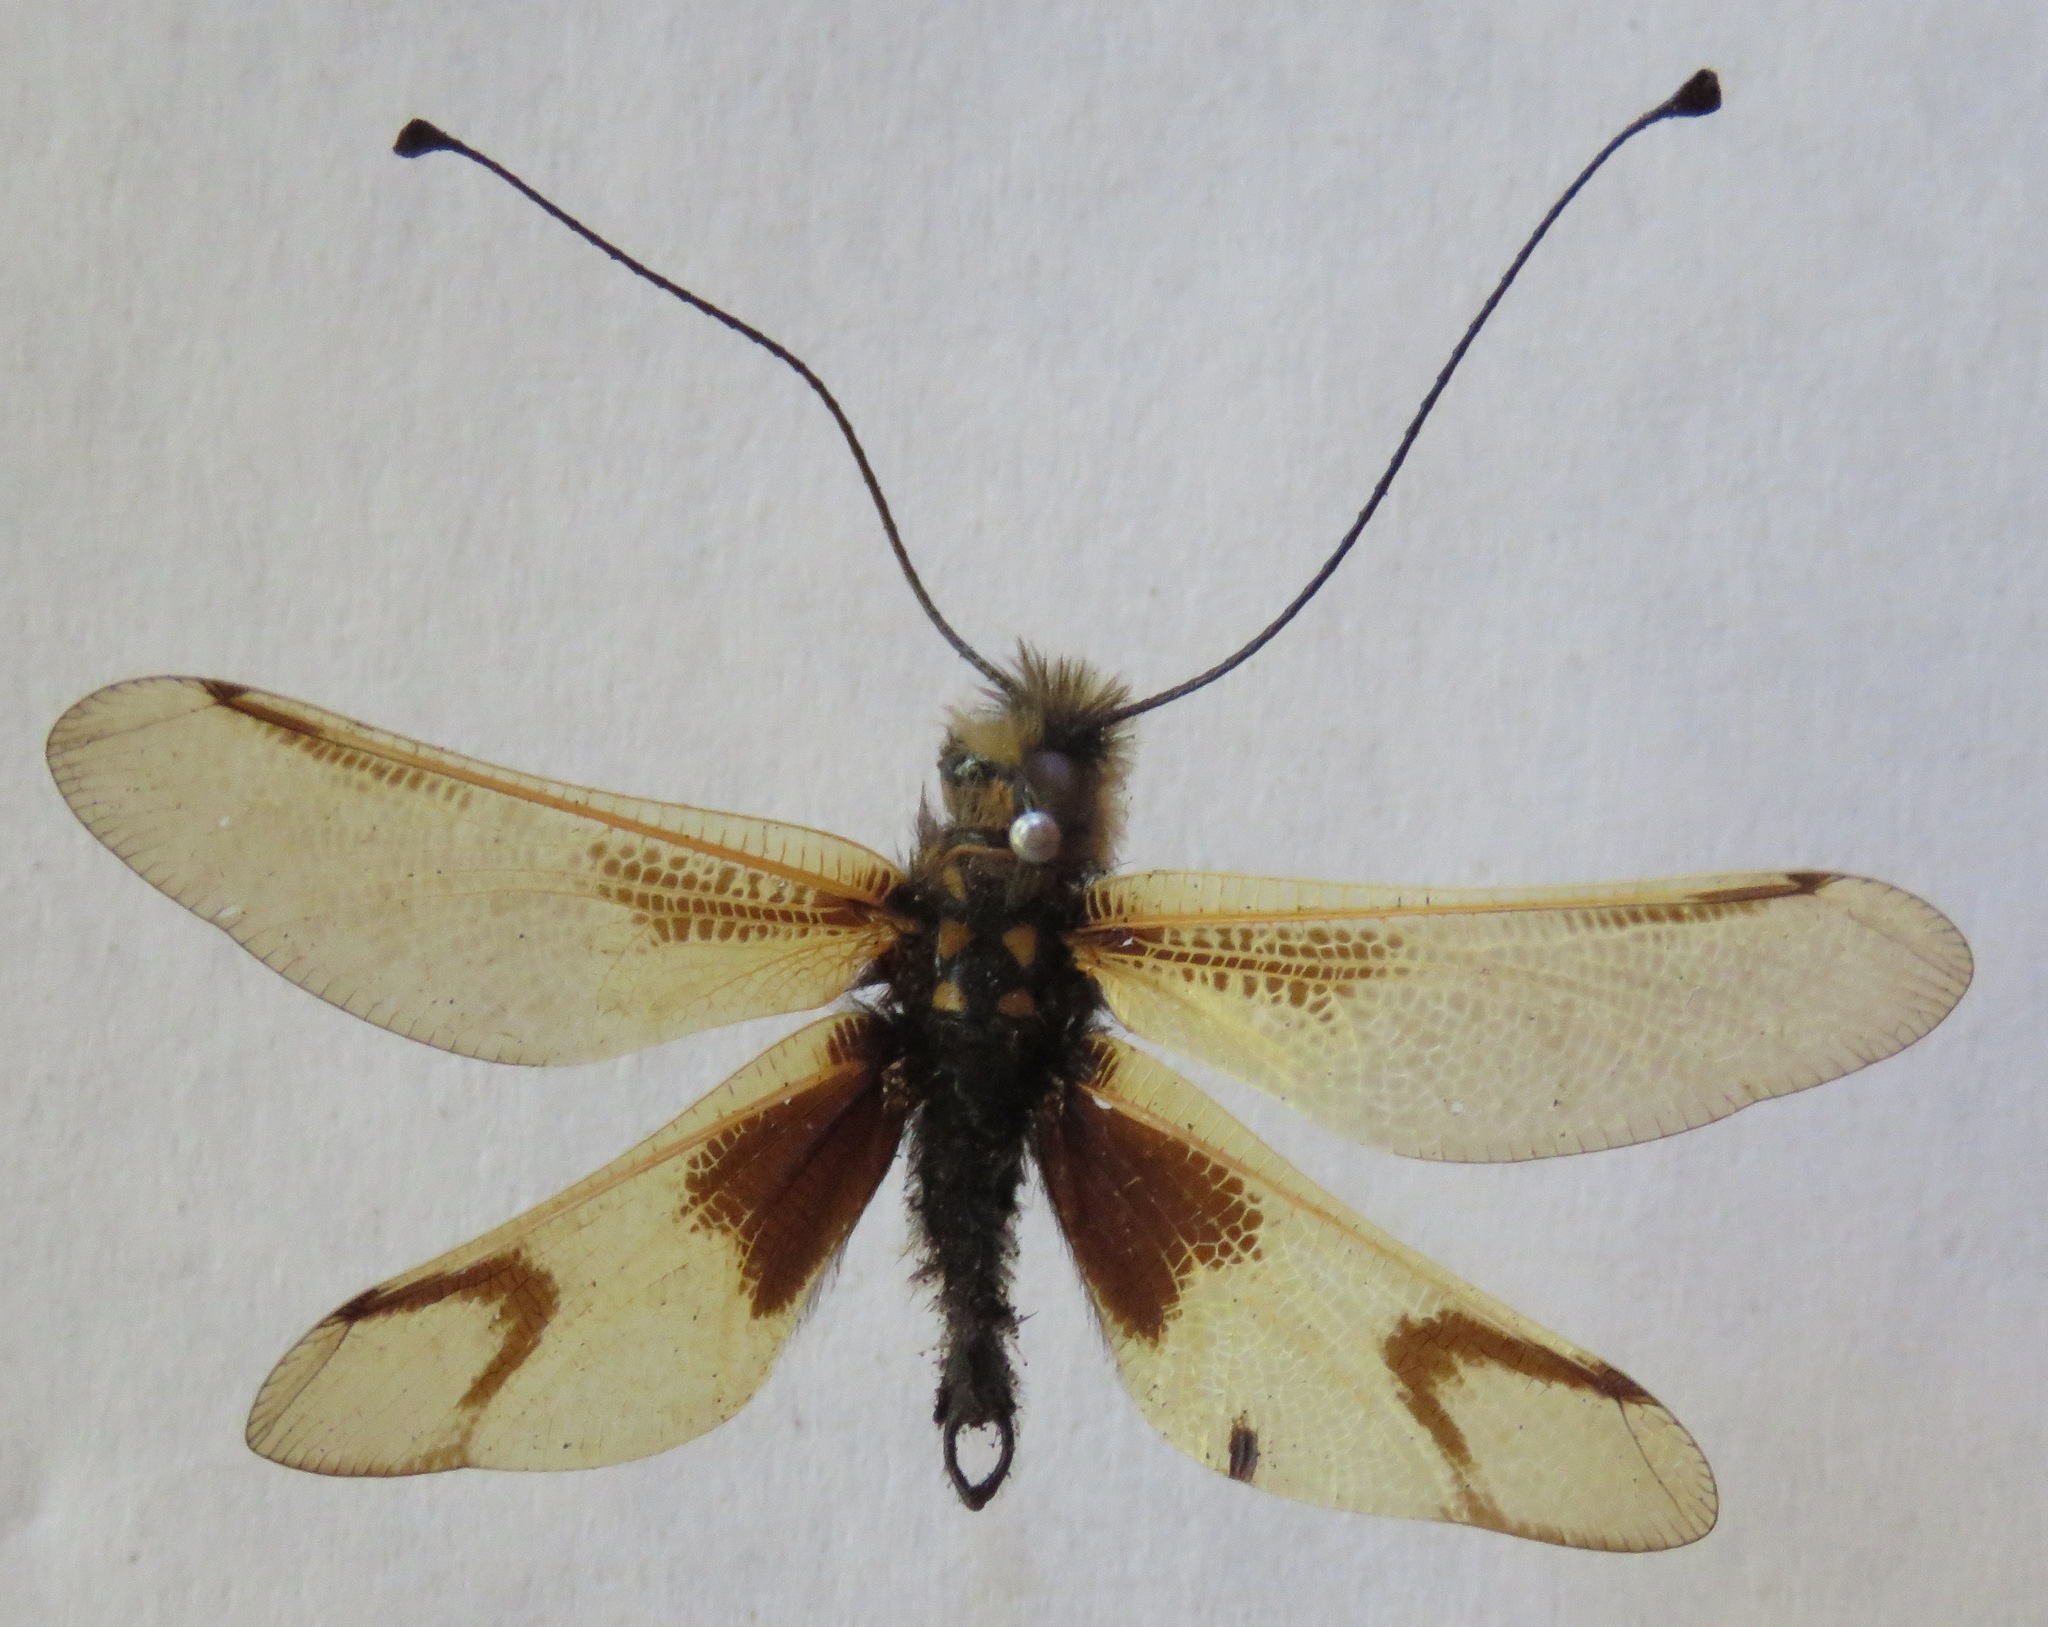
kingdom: Animalia
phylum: Arthropoda
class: Insecta
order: Neuroptera
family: Ascalaphidae
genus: Libelloides
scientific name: Libelloides longicornis
